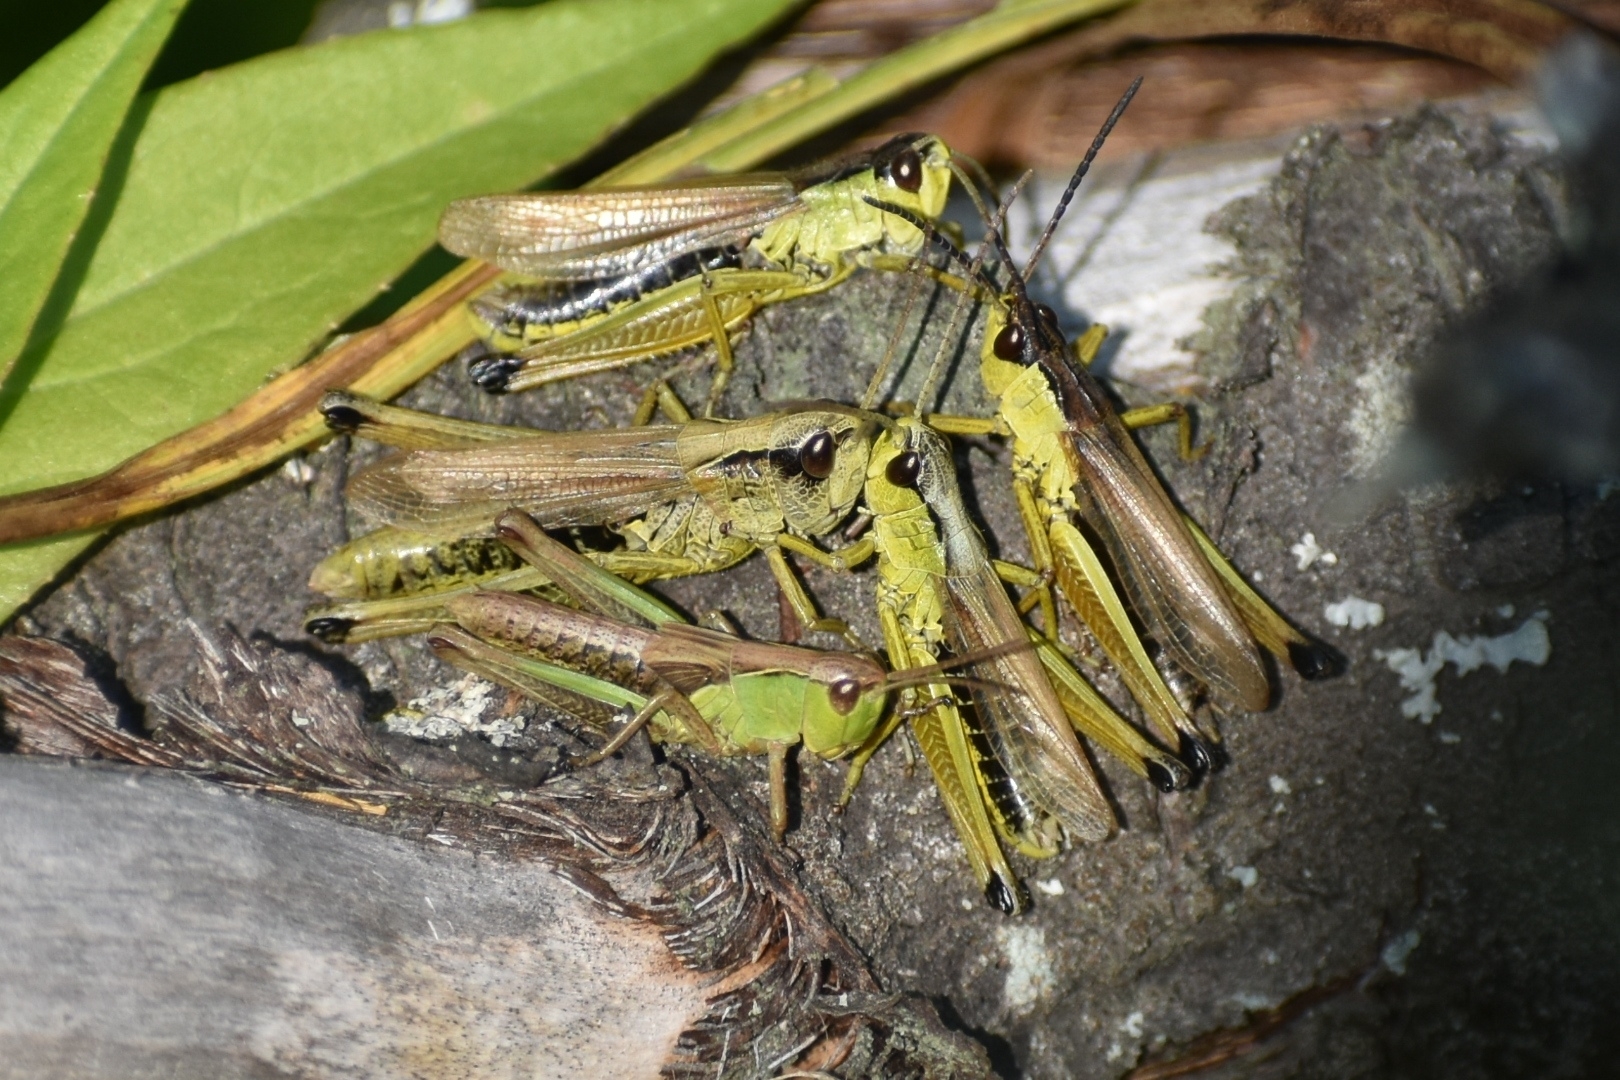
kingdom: Animalia
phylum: Arthropoda
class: Insecta
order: Orthoptera
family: Acrididae
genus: Pseudochorthippus
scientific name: Pseudochorthippus montanus
